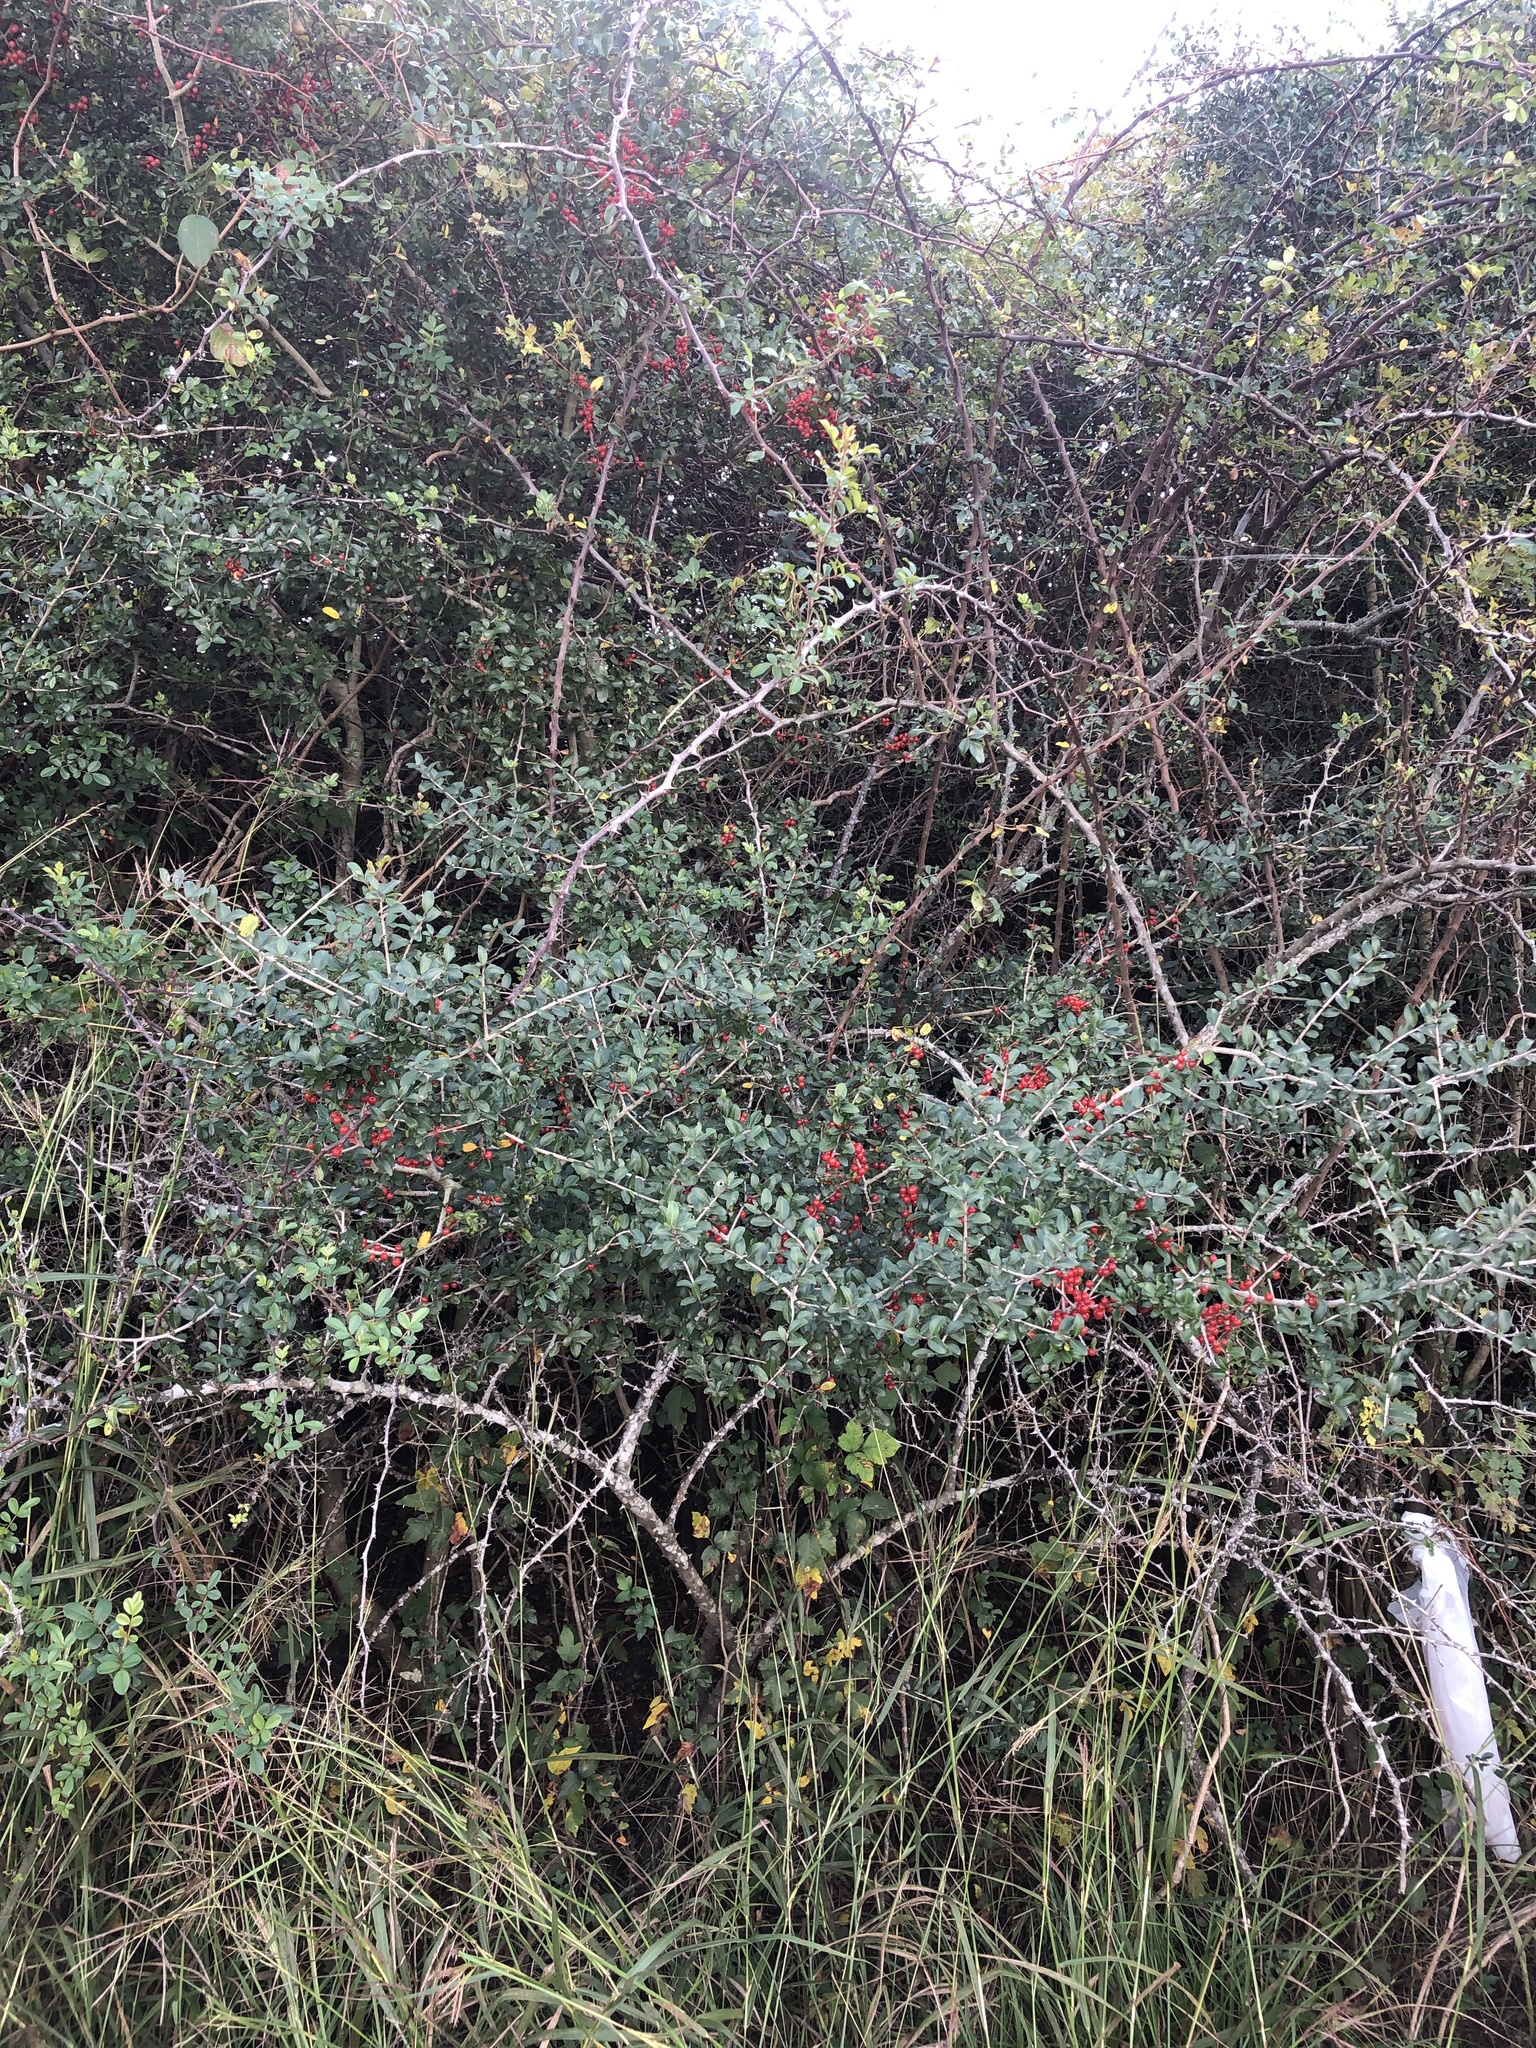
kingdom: Plantae
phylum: Tracheophyta
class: Magnoliopsida
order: Aquifoliales
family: Aquifoliaceae
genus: Ilex
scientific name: Ilex vomitoria
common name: Yaupon holly
